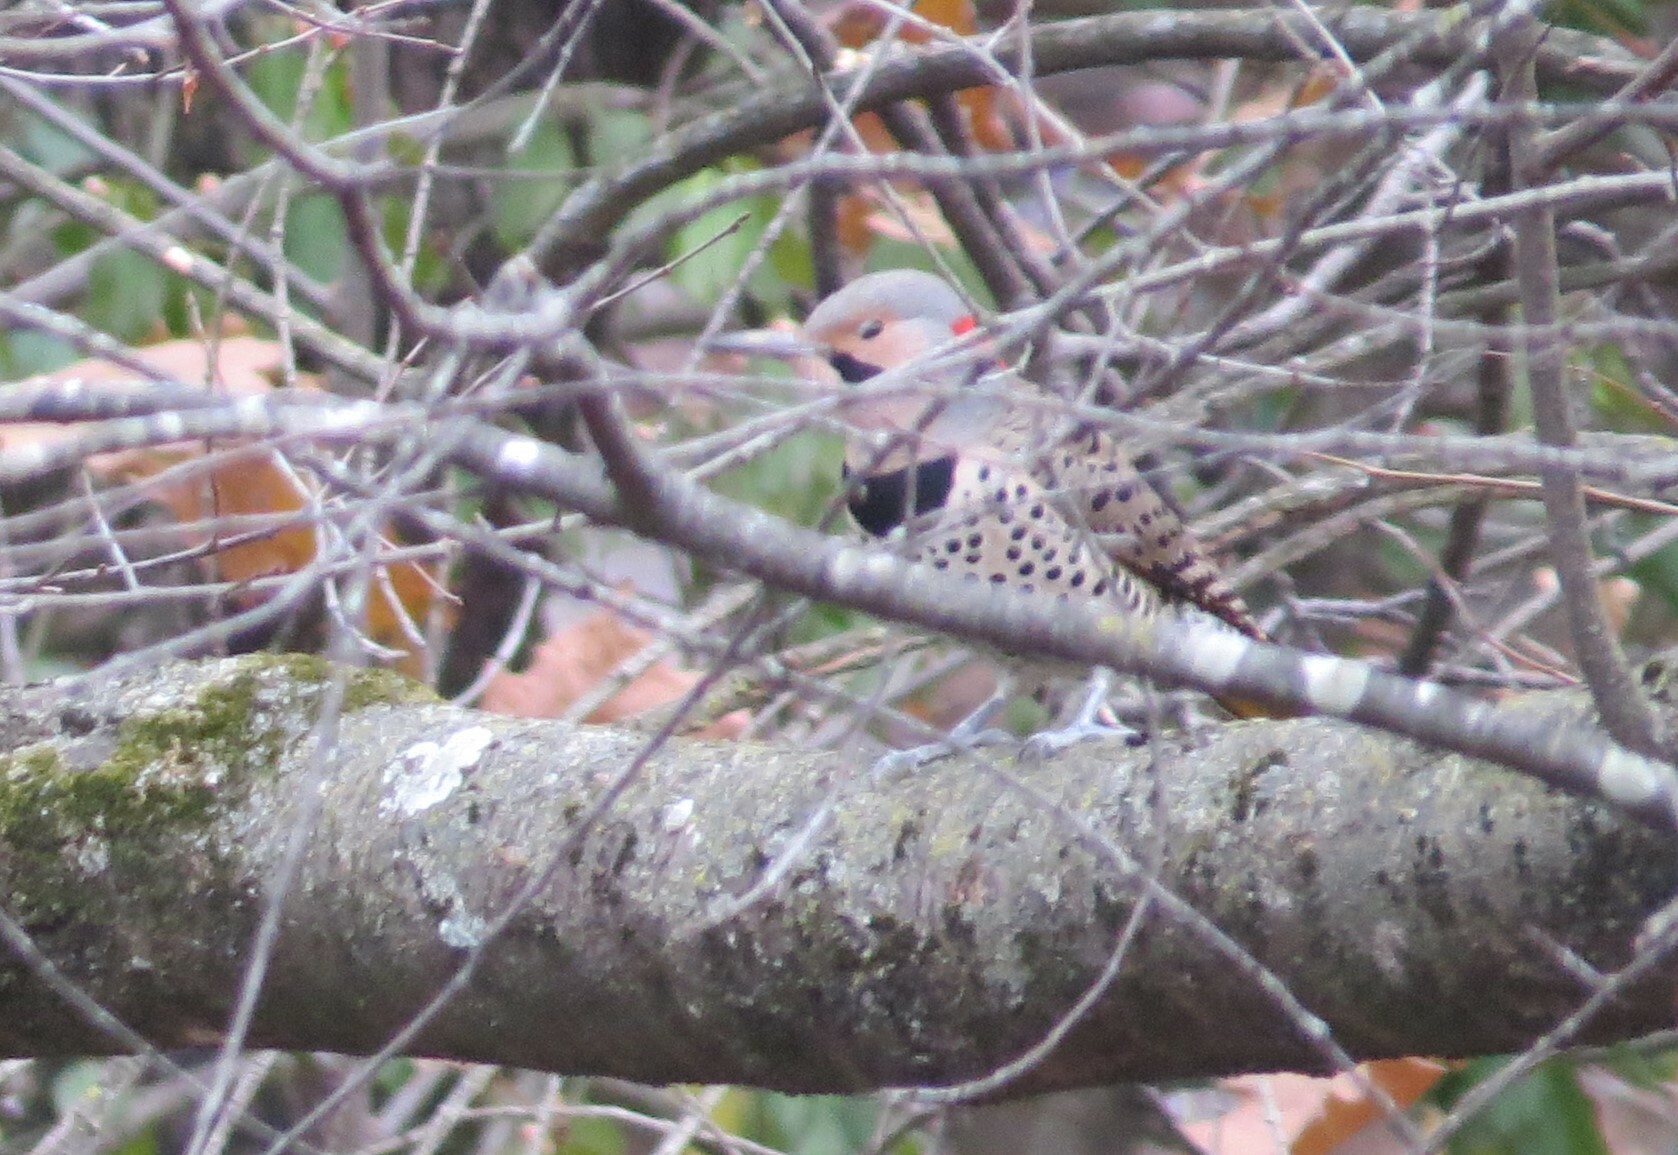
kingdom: Animalia
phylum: Chordata
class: Aves
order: Piciformes
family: Picidae
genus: Colaptes
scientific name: Colaptes auratus
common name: Northern flicker
